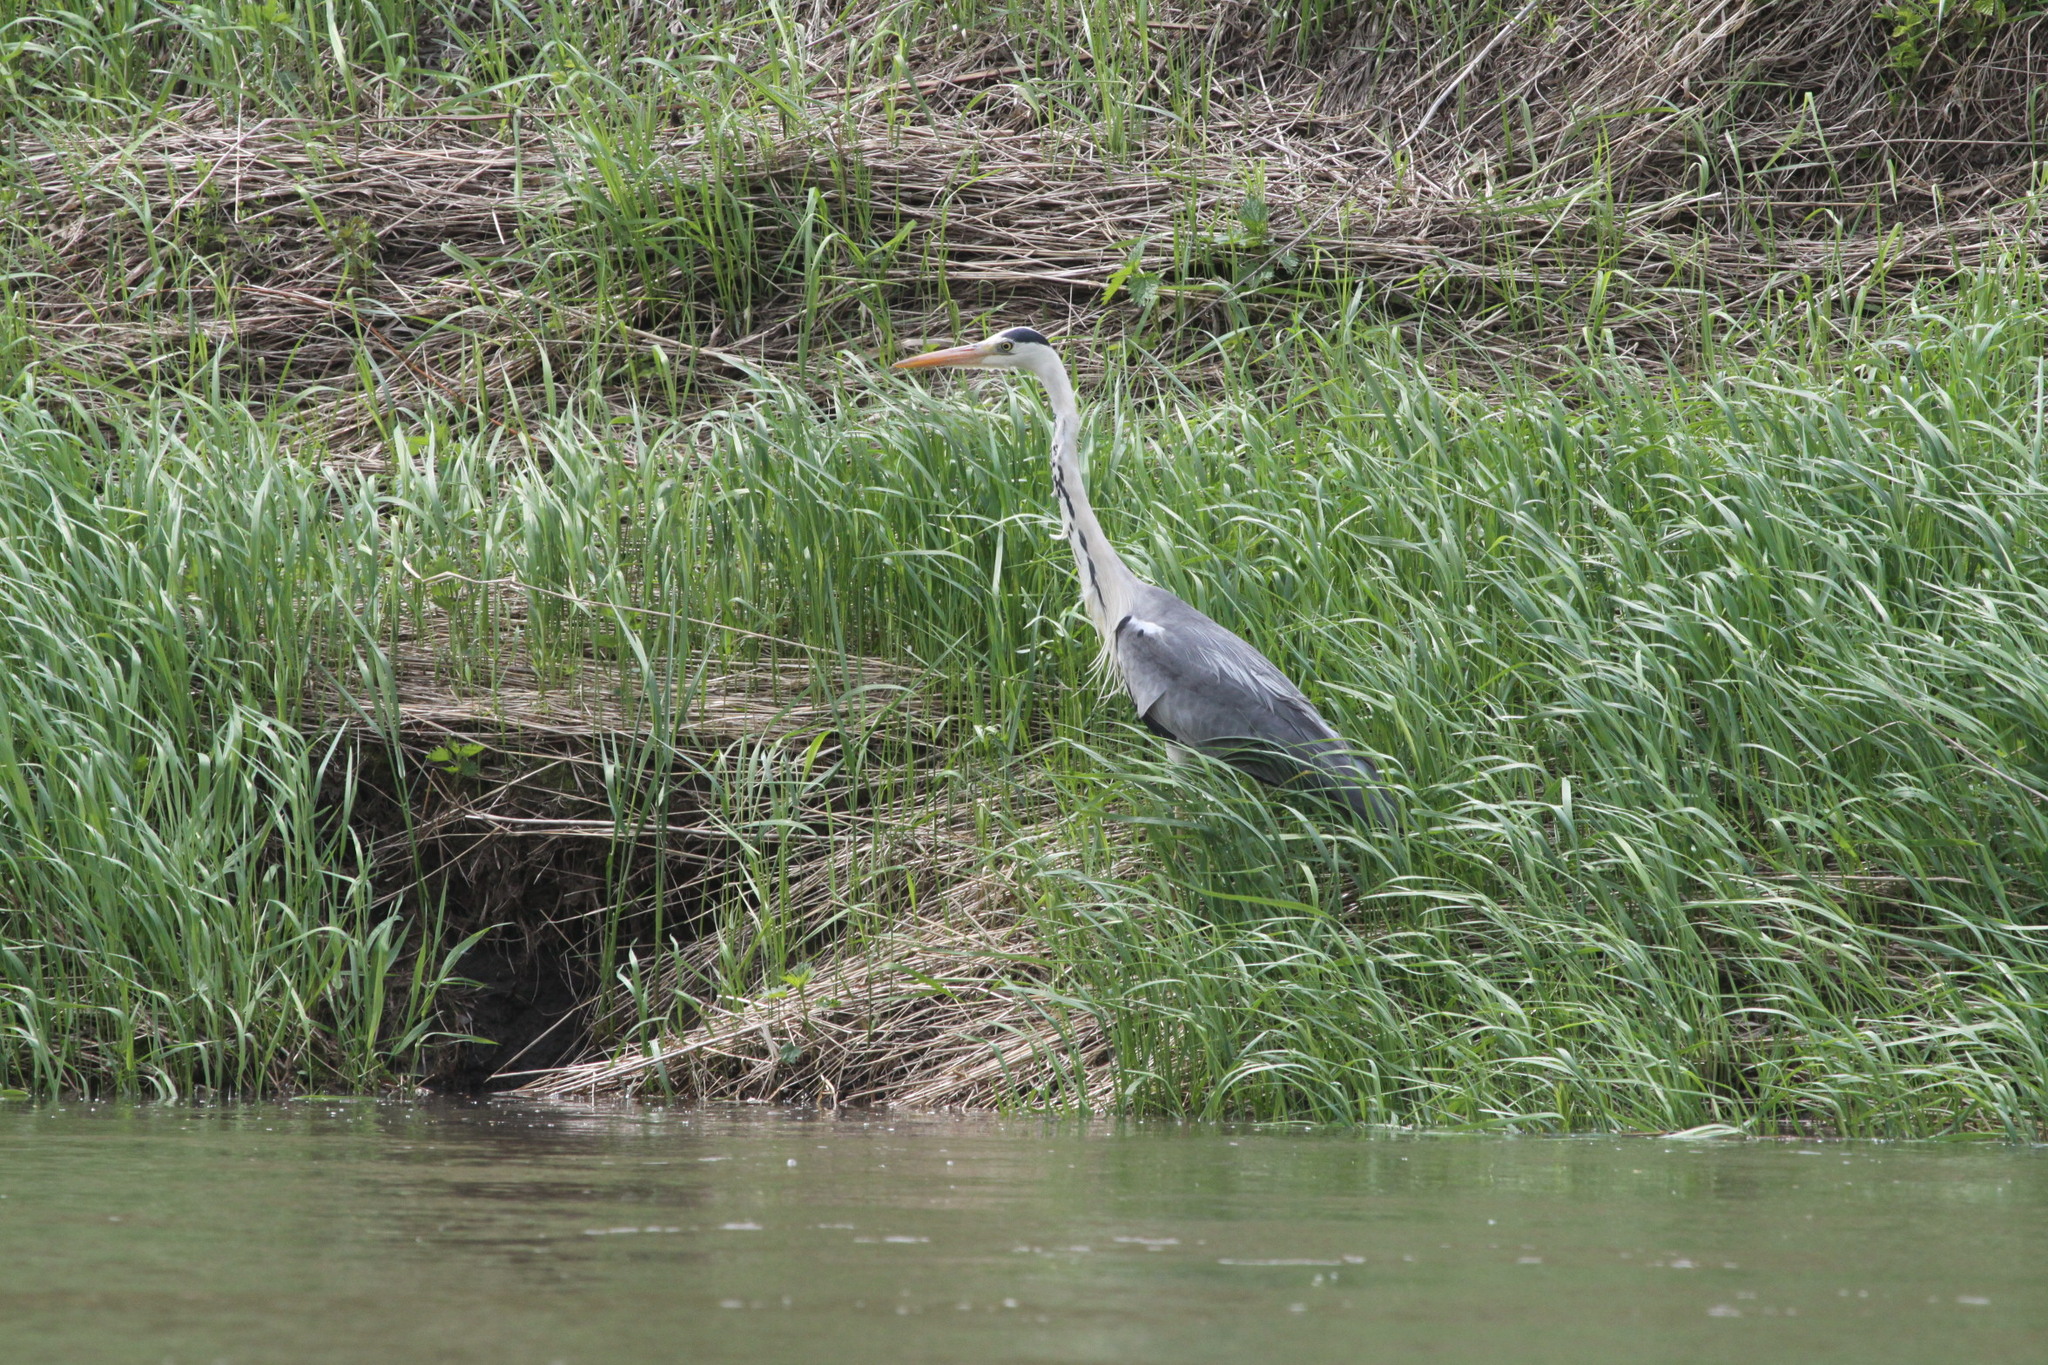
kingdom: Animalia
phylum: Chordata
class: Aves
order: Pelecaniformes
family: Ardeidae
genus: Ardea
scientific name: Ardea cinerea
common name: Grey heron
